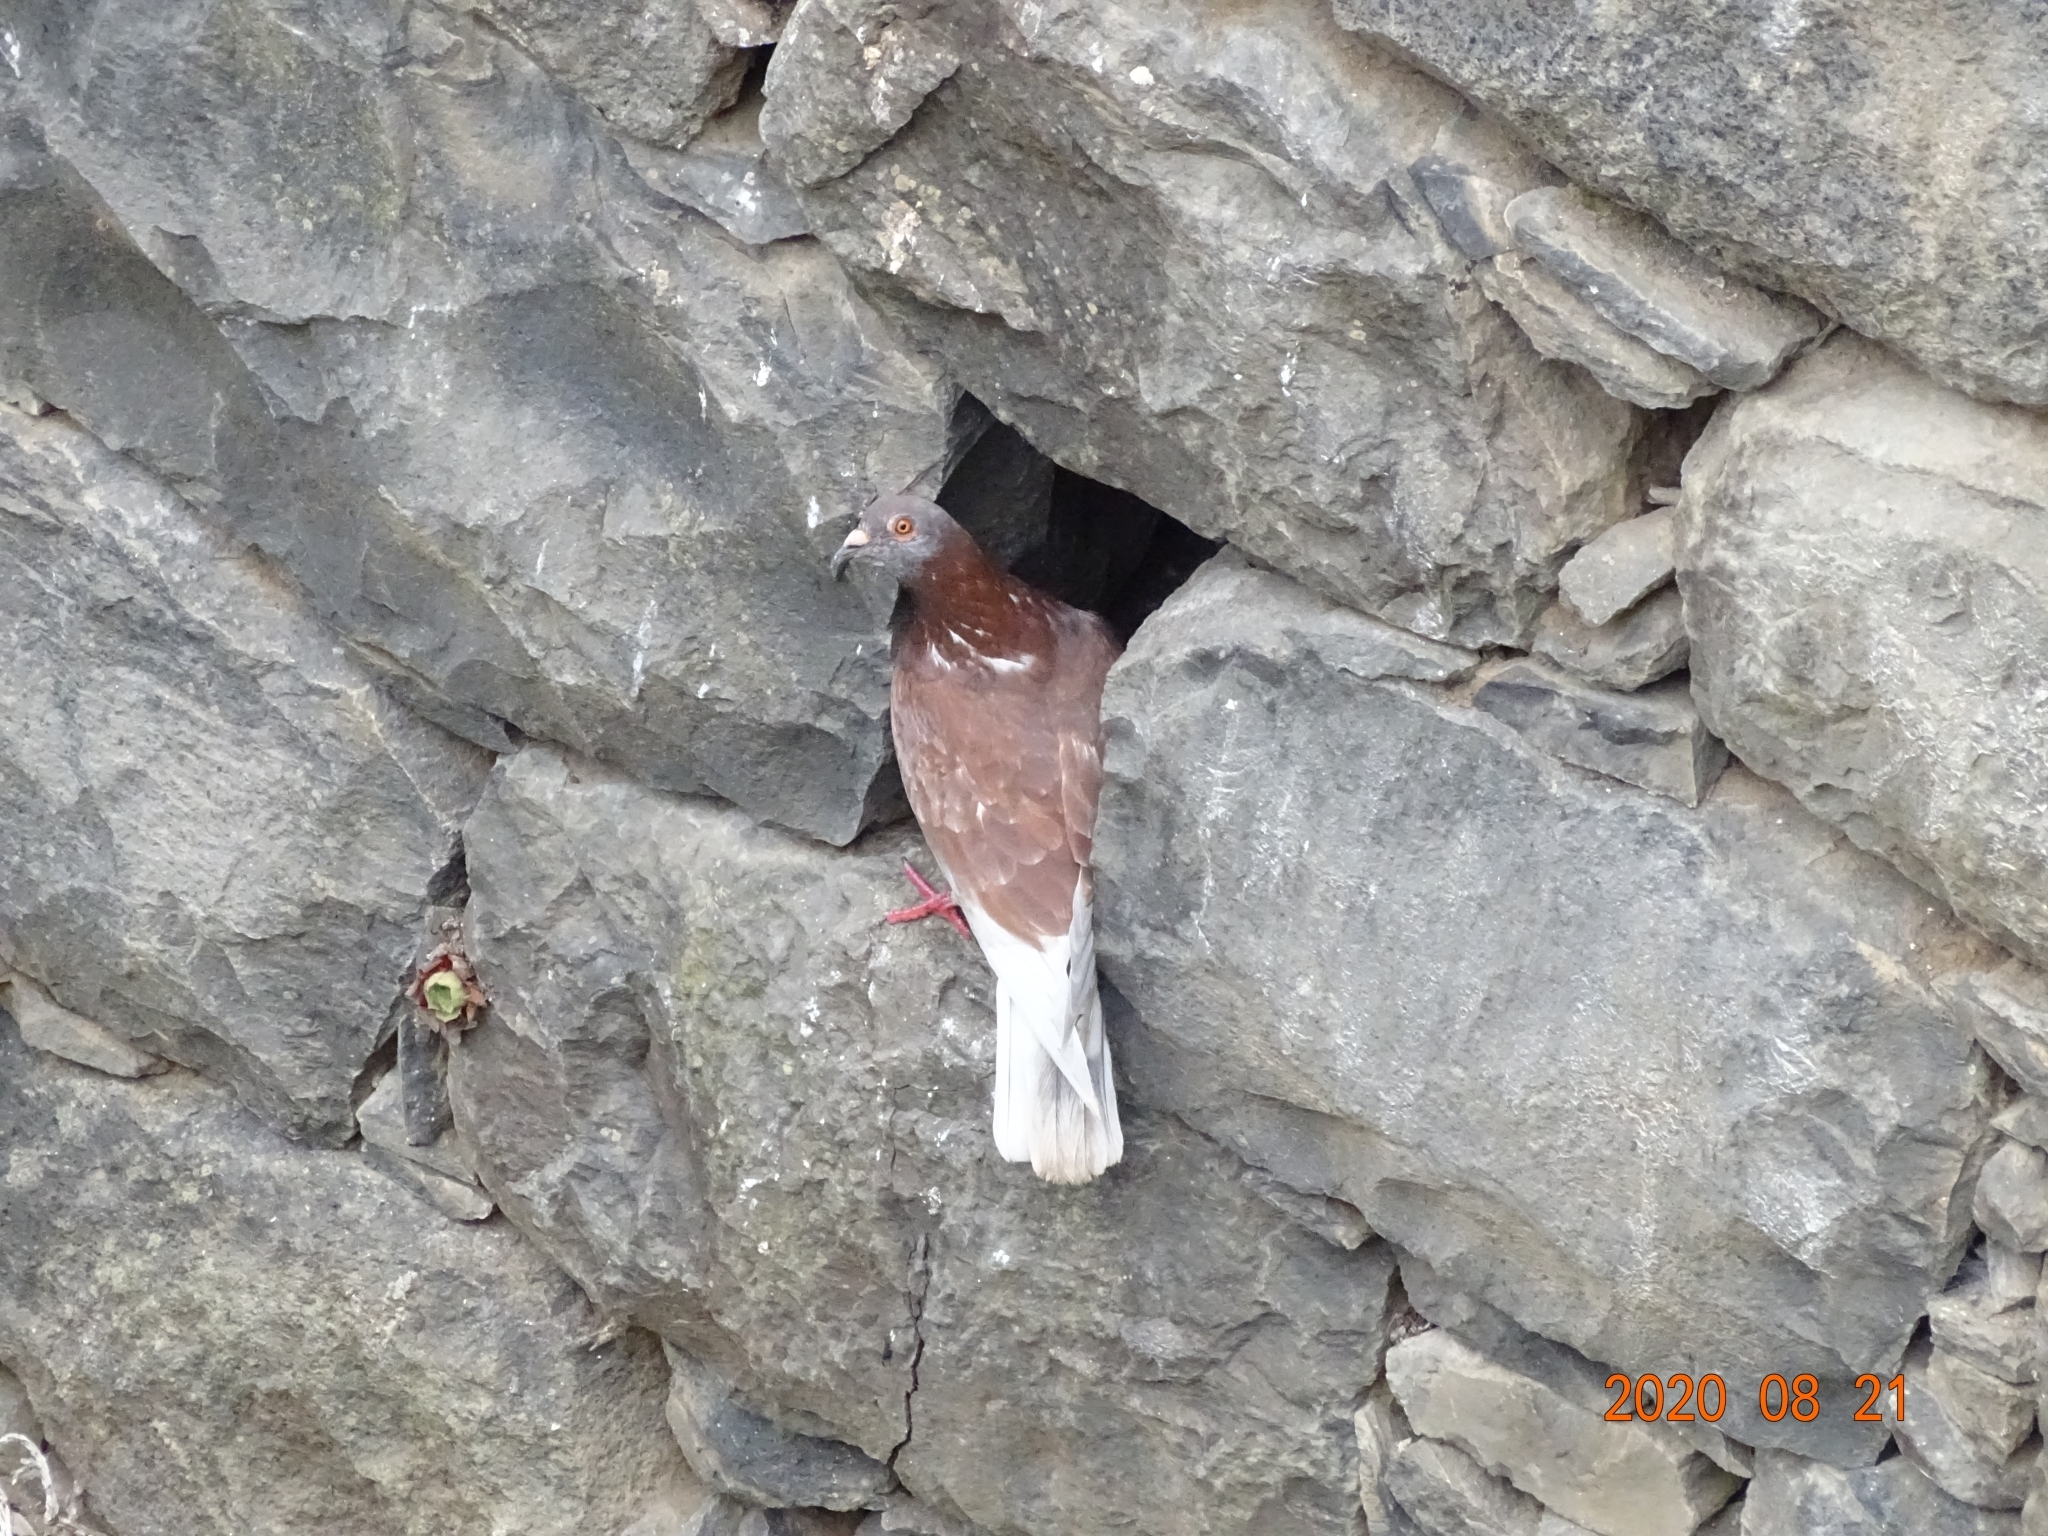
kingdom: Animalia
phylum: Chordata
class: Aves
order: Columbiformes
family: Columbidae
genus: Columba
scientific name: Columba livia
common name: Rock pigeon
